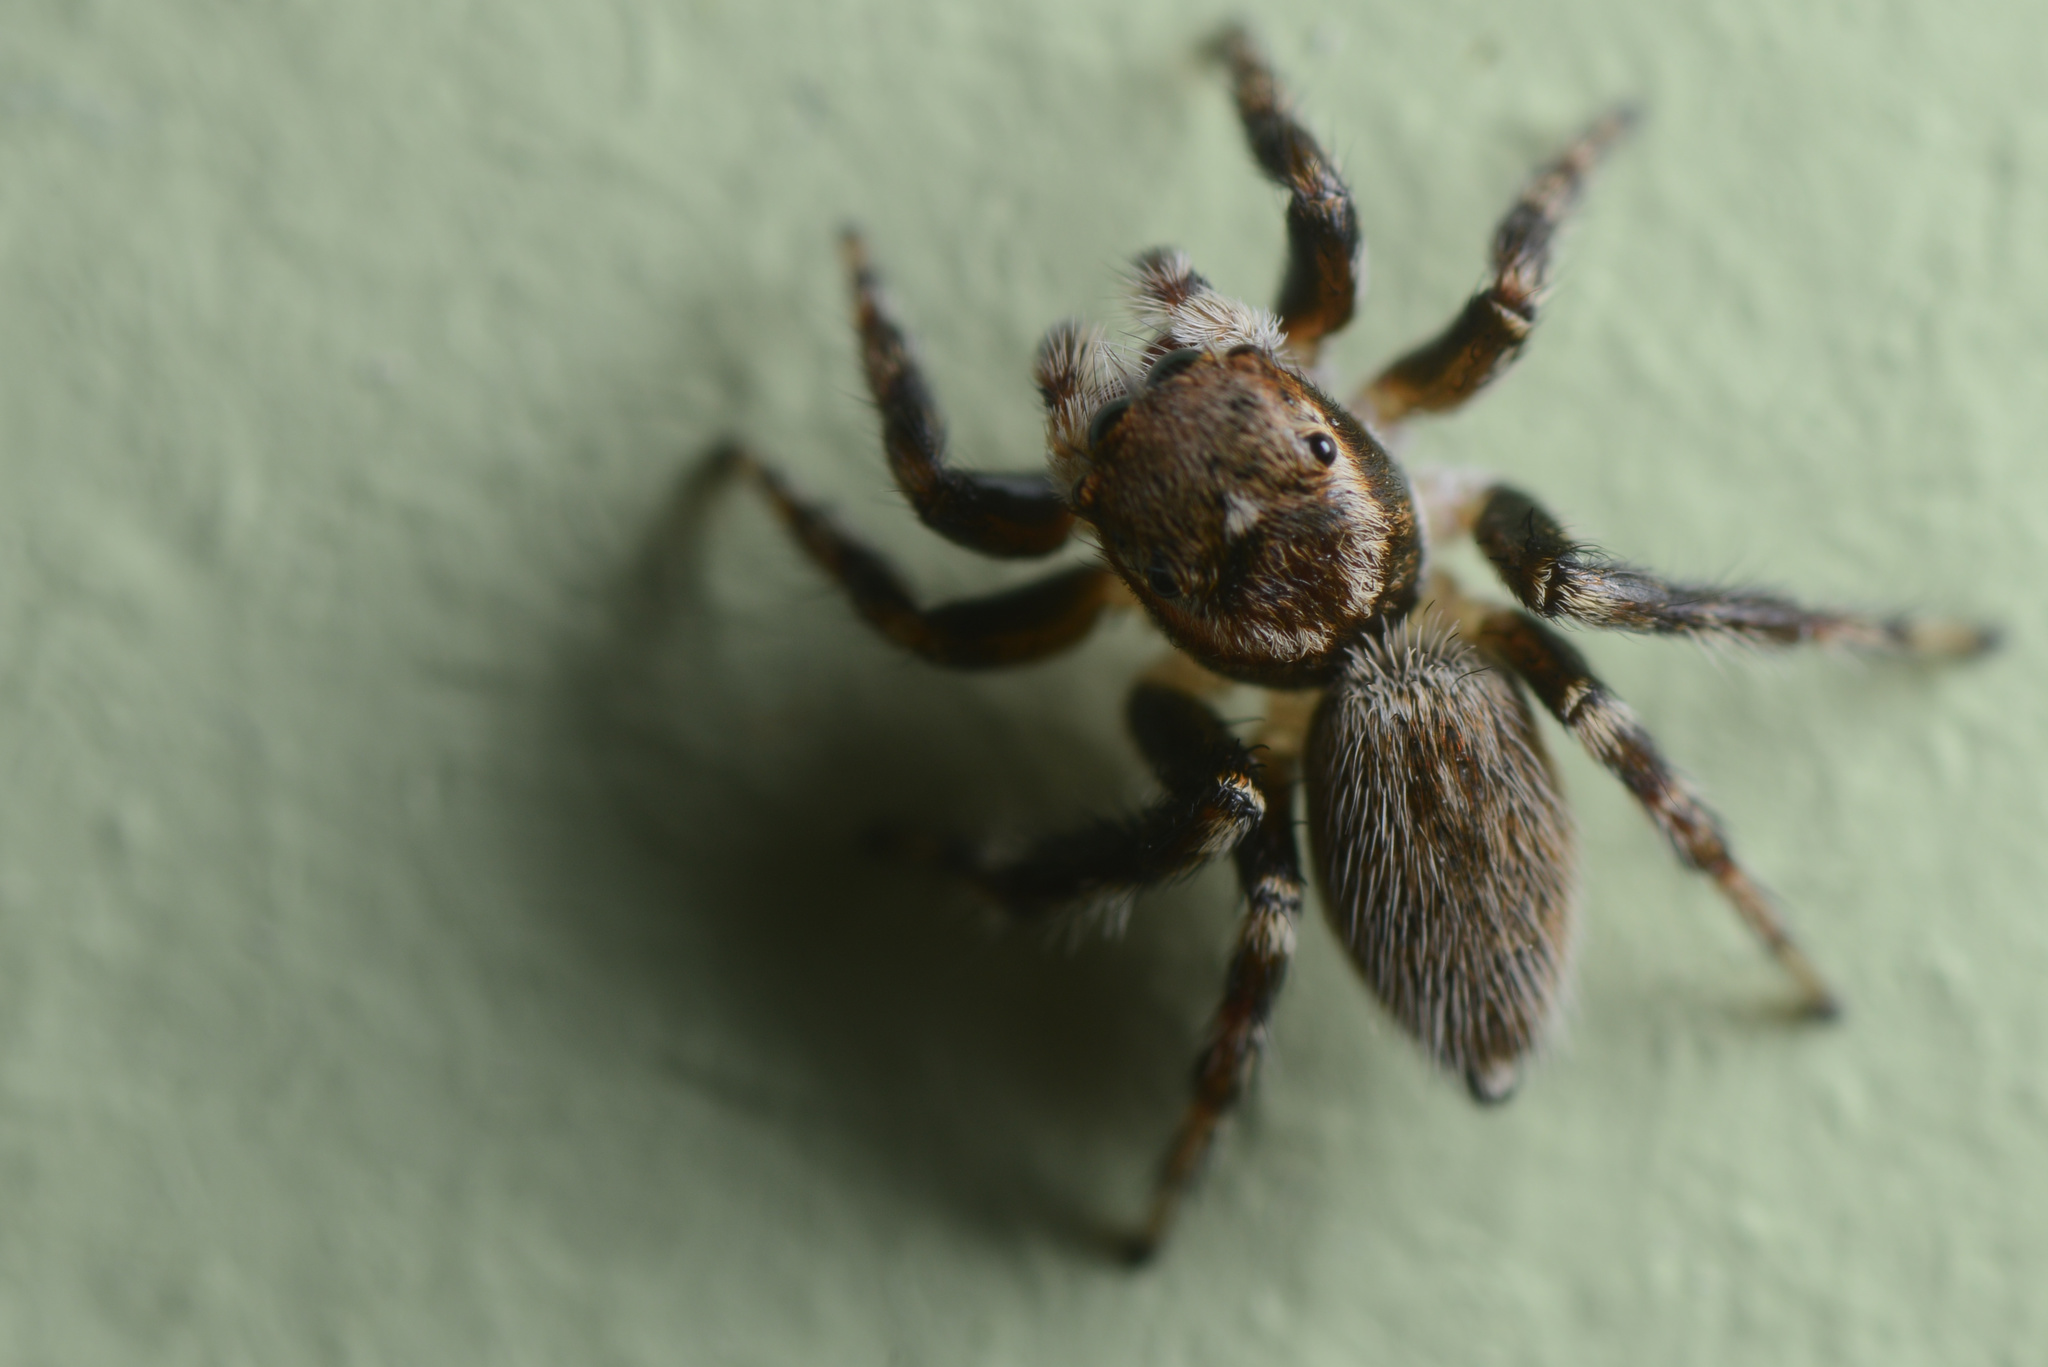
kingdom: Animalia
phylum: Arthropoda
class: Arachnida
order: Araneae
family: Salticidae
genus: Maratus
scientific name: Maratus griseus
